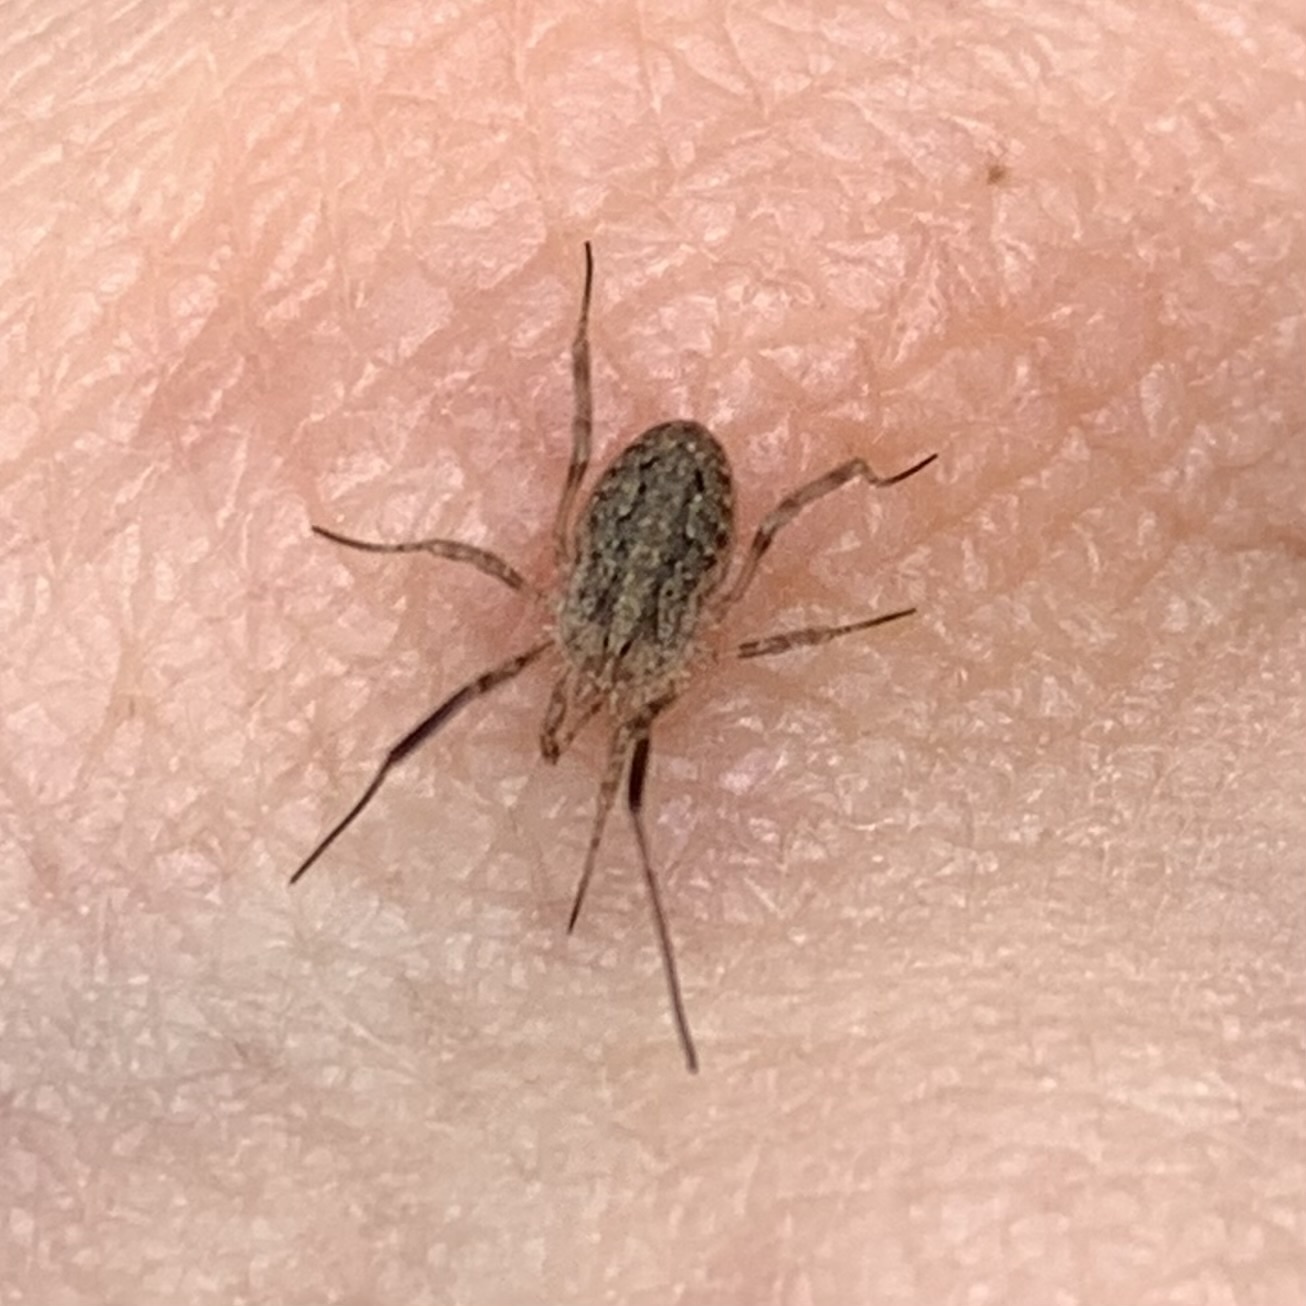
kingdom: Animalia
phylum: Arthropoda
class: Arachnida
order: Opiliones
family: Phalangiidae
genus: Odiellus
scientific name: Odiellus troguloides
